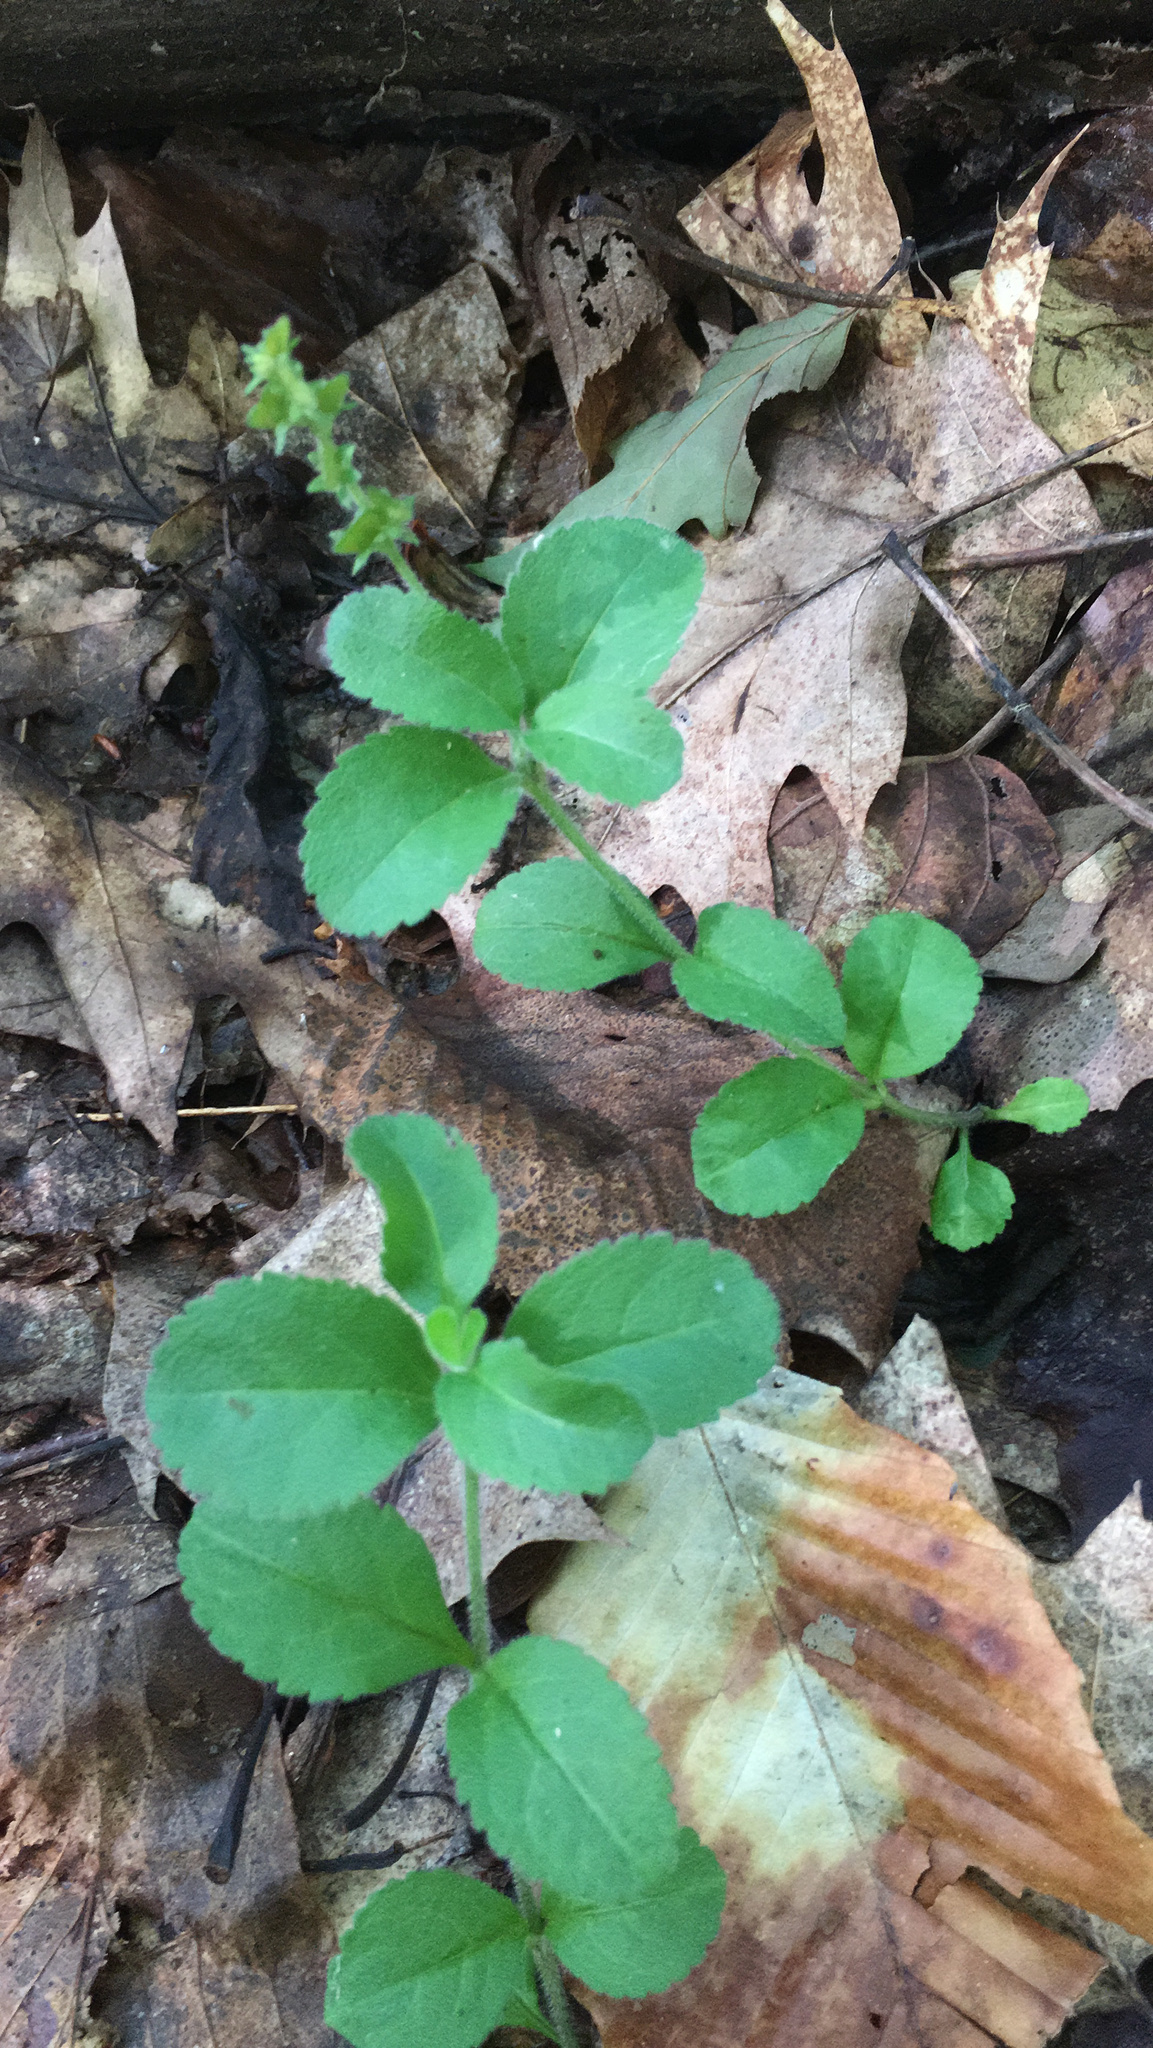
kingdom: Plantae
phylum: Tracheophyta
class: Magnoliopsida
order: Lamiales
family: Plantaginaceae
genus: Veronica
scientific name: Veronica officinalis
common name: Common speedwell
